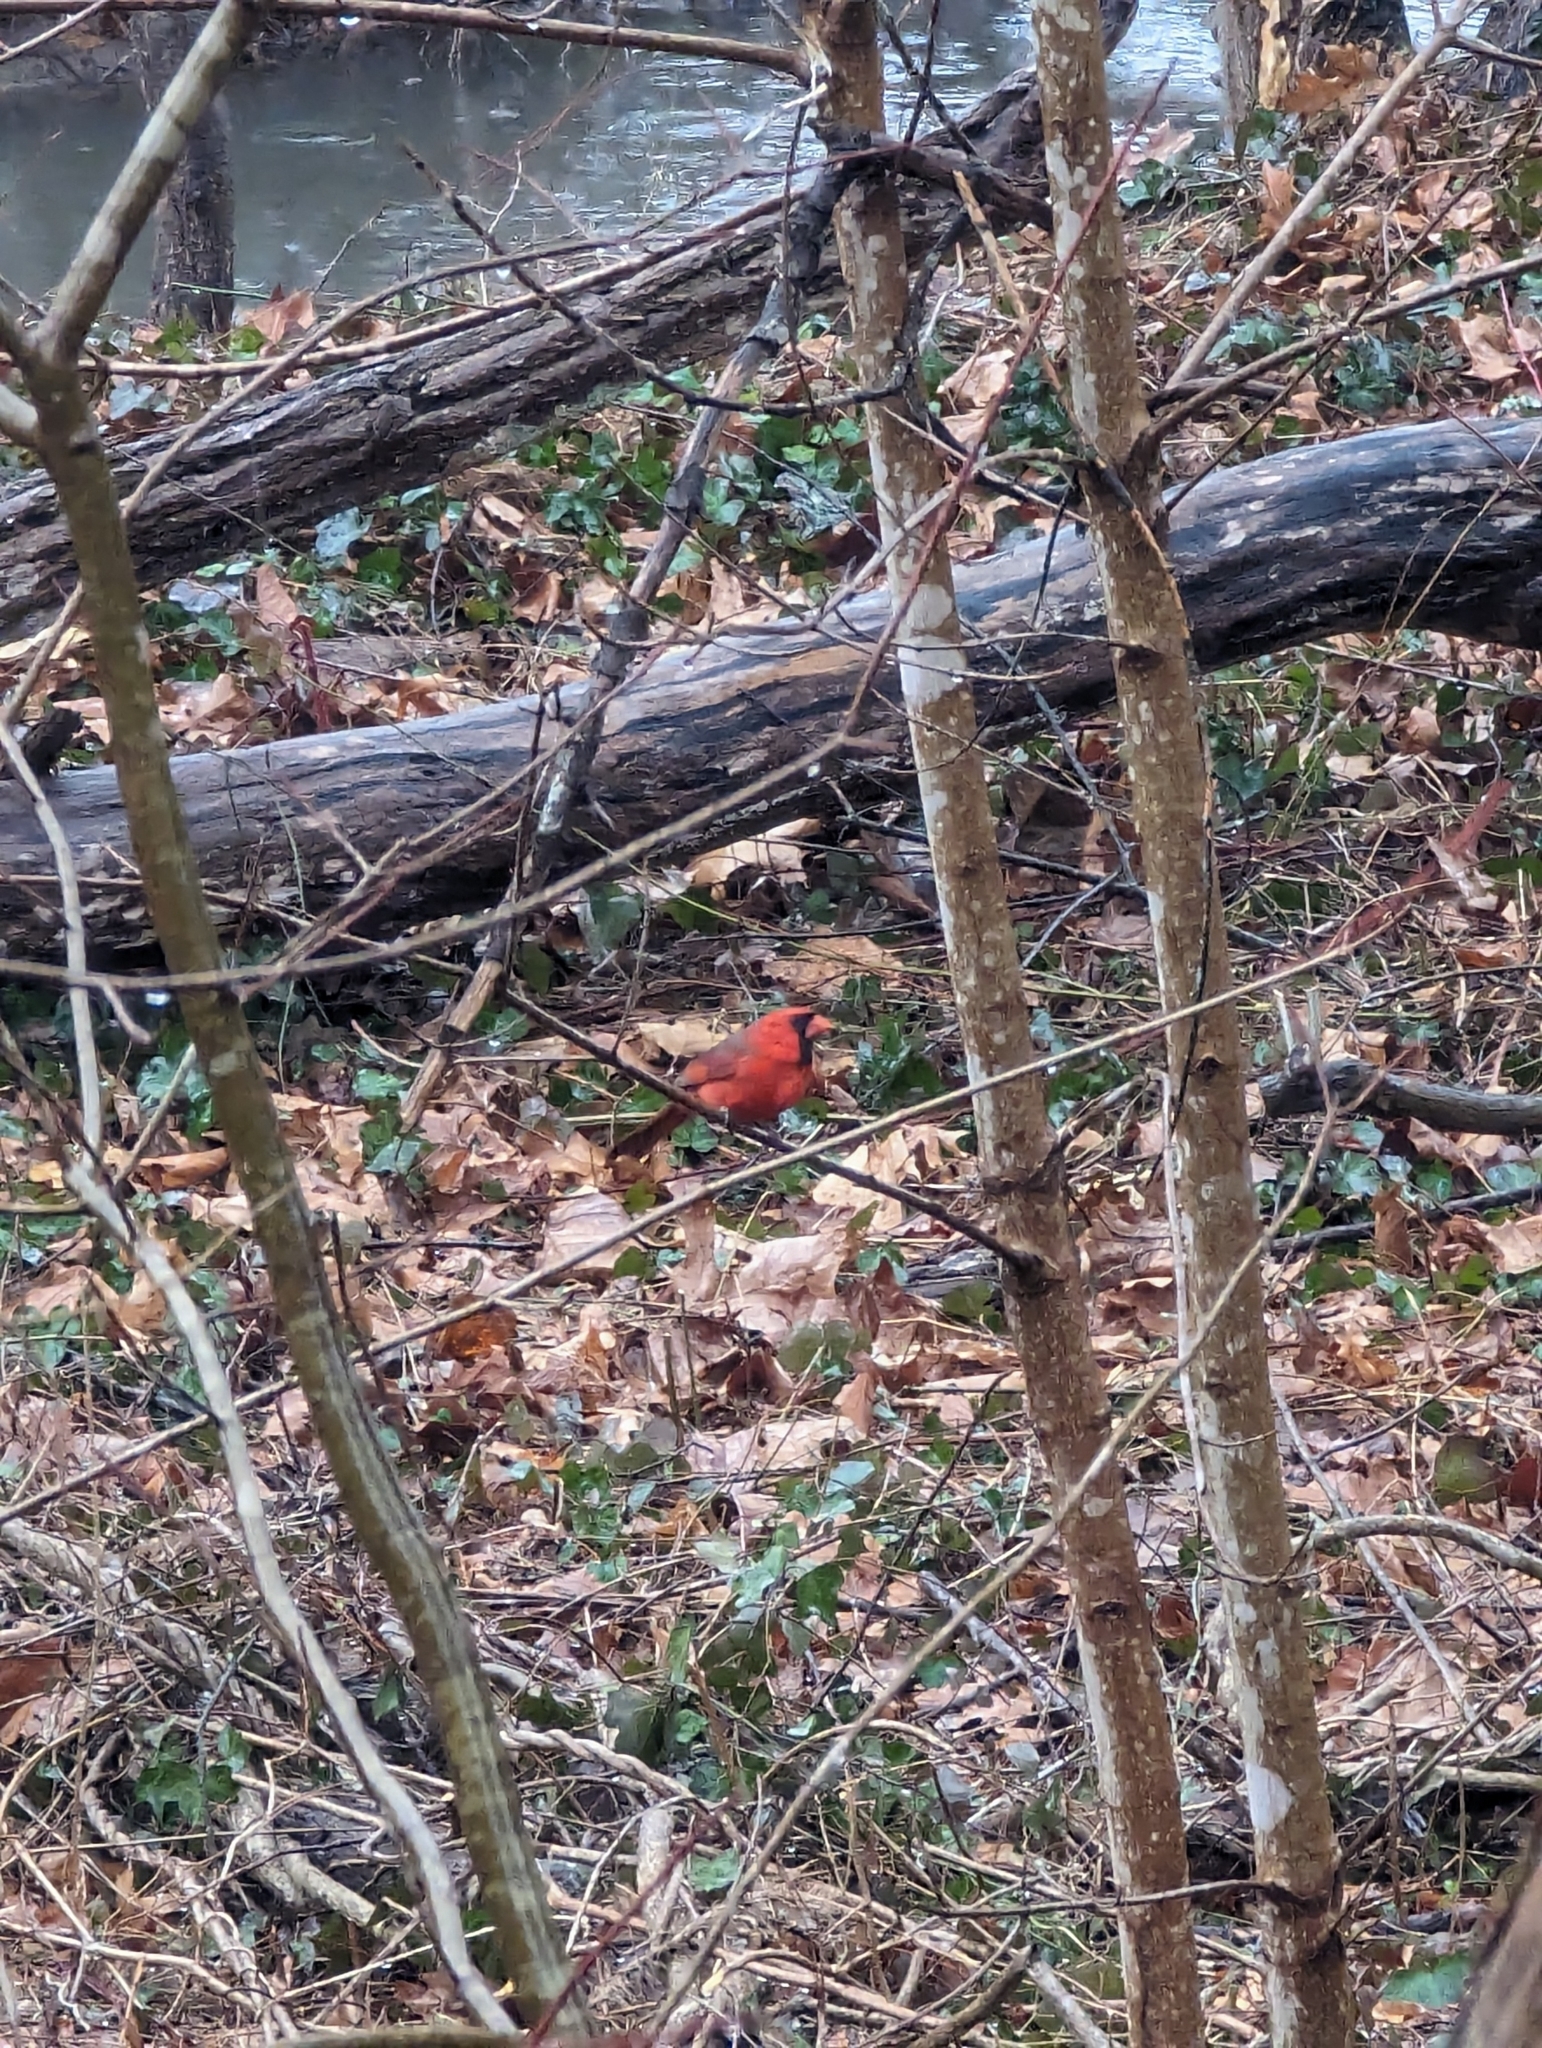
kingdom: Animalia
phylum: Chordata
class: Aves
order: Passeriformes
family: Cardinalidae
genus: Cardinalis
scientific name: Cardinalis cardinalis
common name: Northern cardinal
